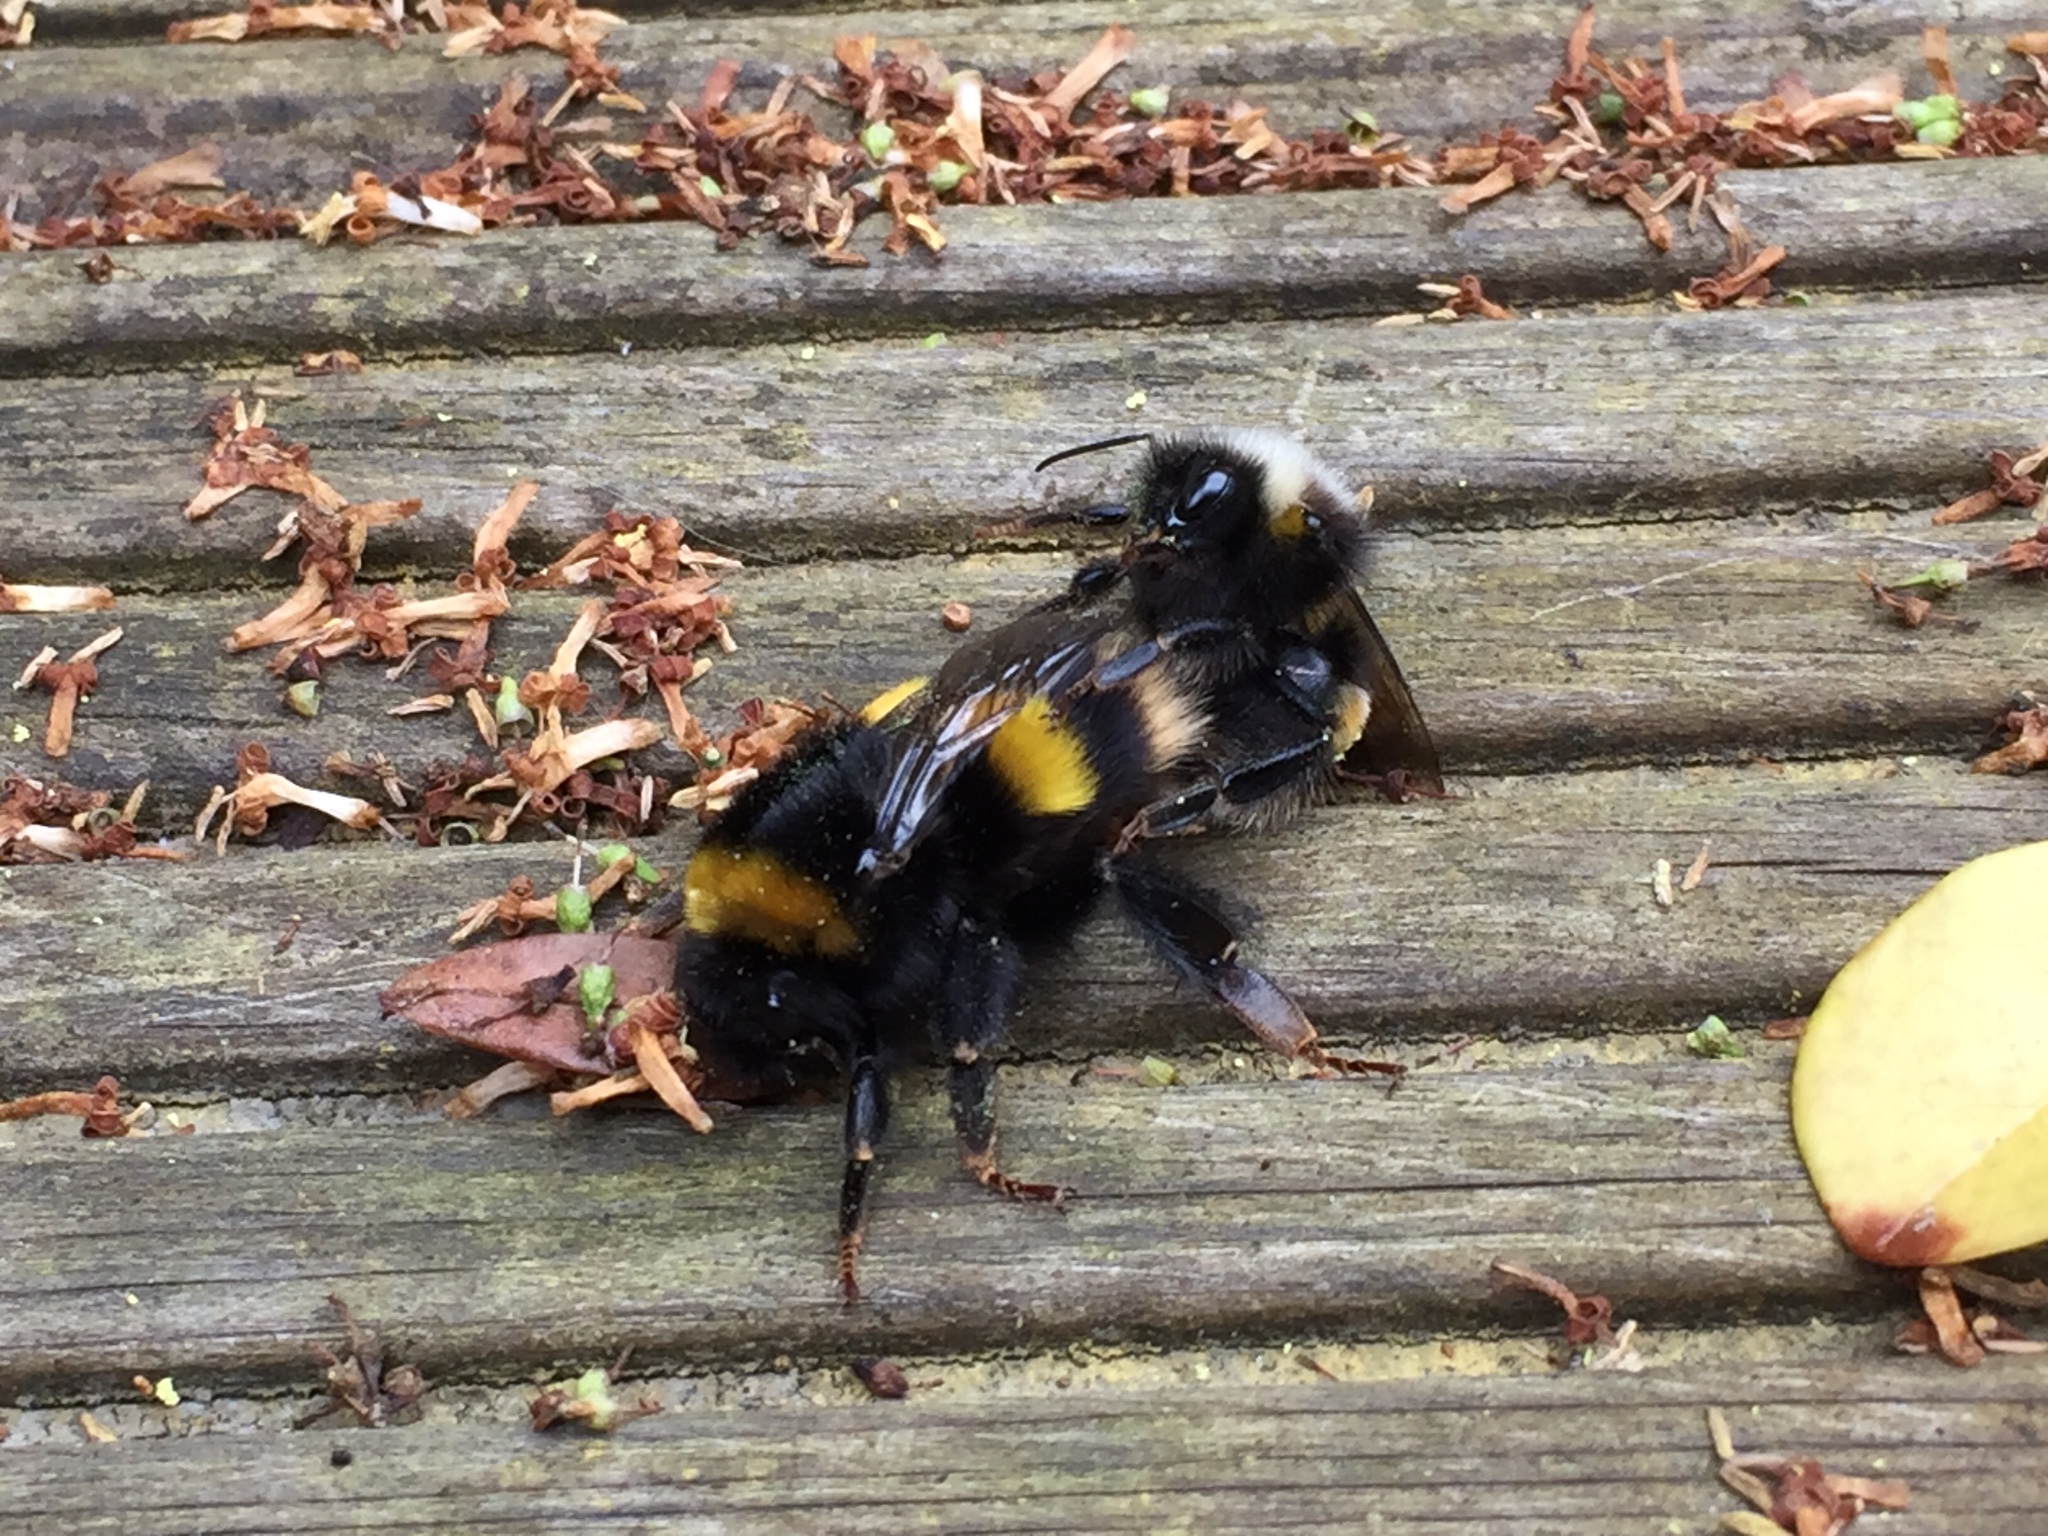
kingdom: Animalia
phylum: Arthropoda
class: Insecta
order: Hymenoptera
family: Apidae
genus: Bombus
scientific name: Bombus terrestris
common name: Buff-tailed bumblebee
